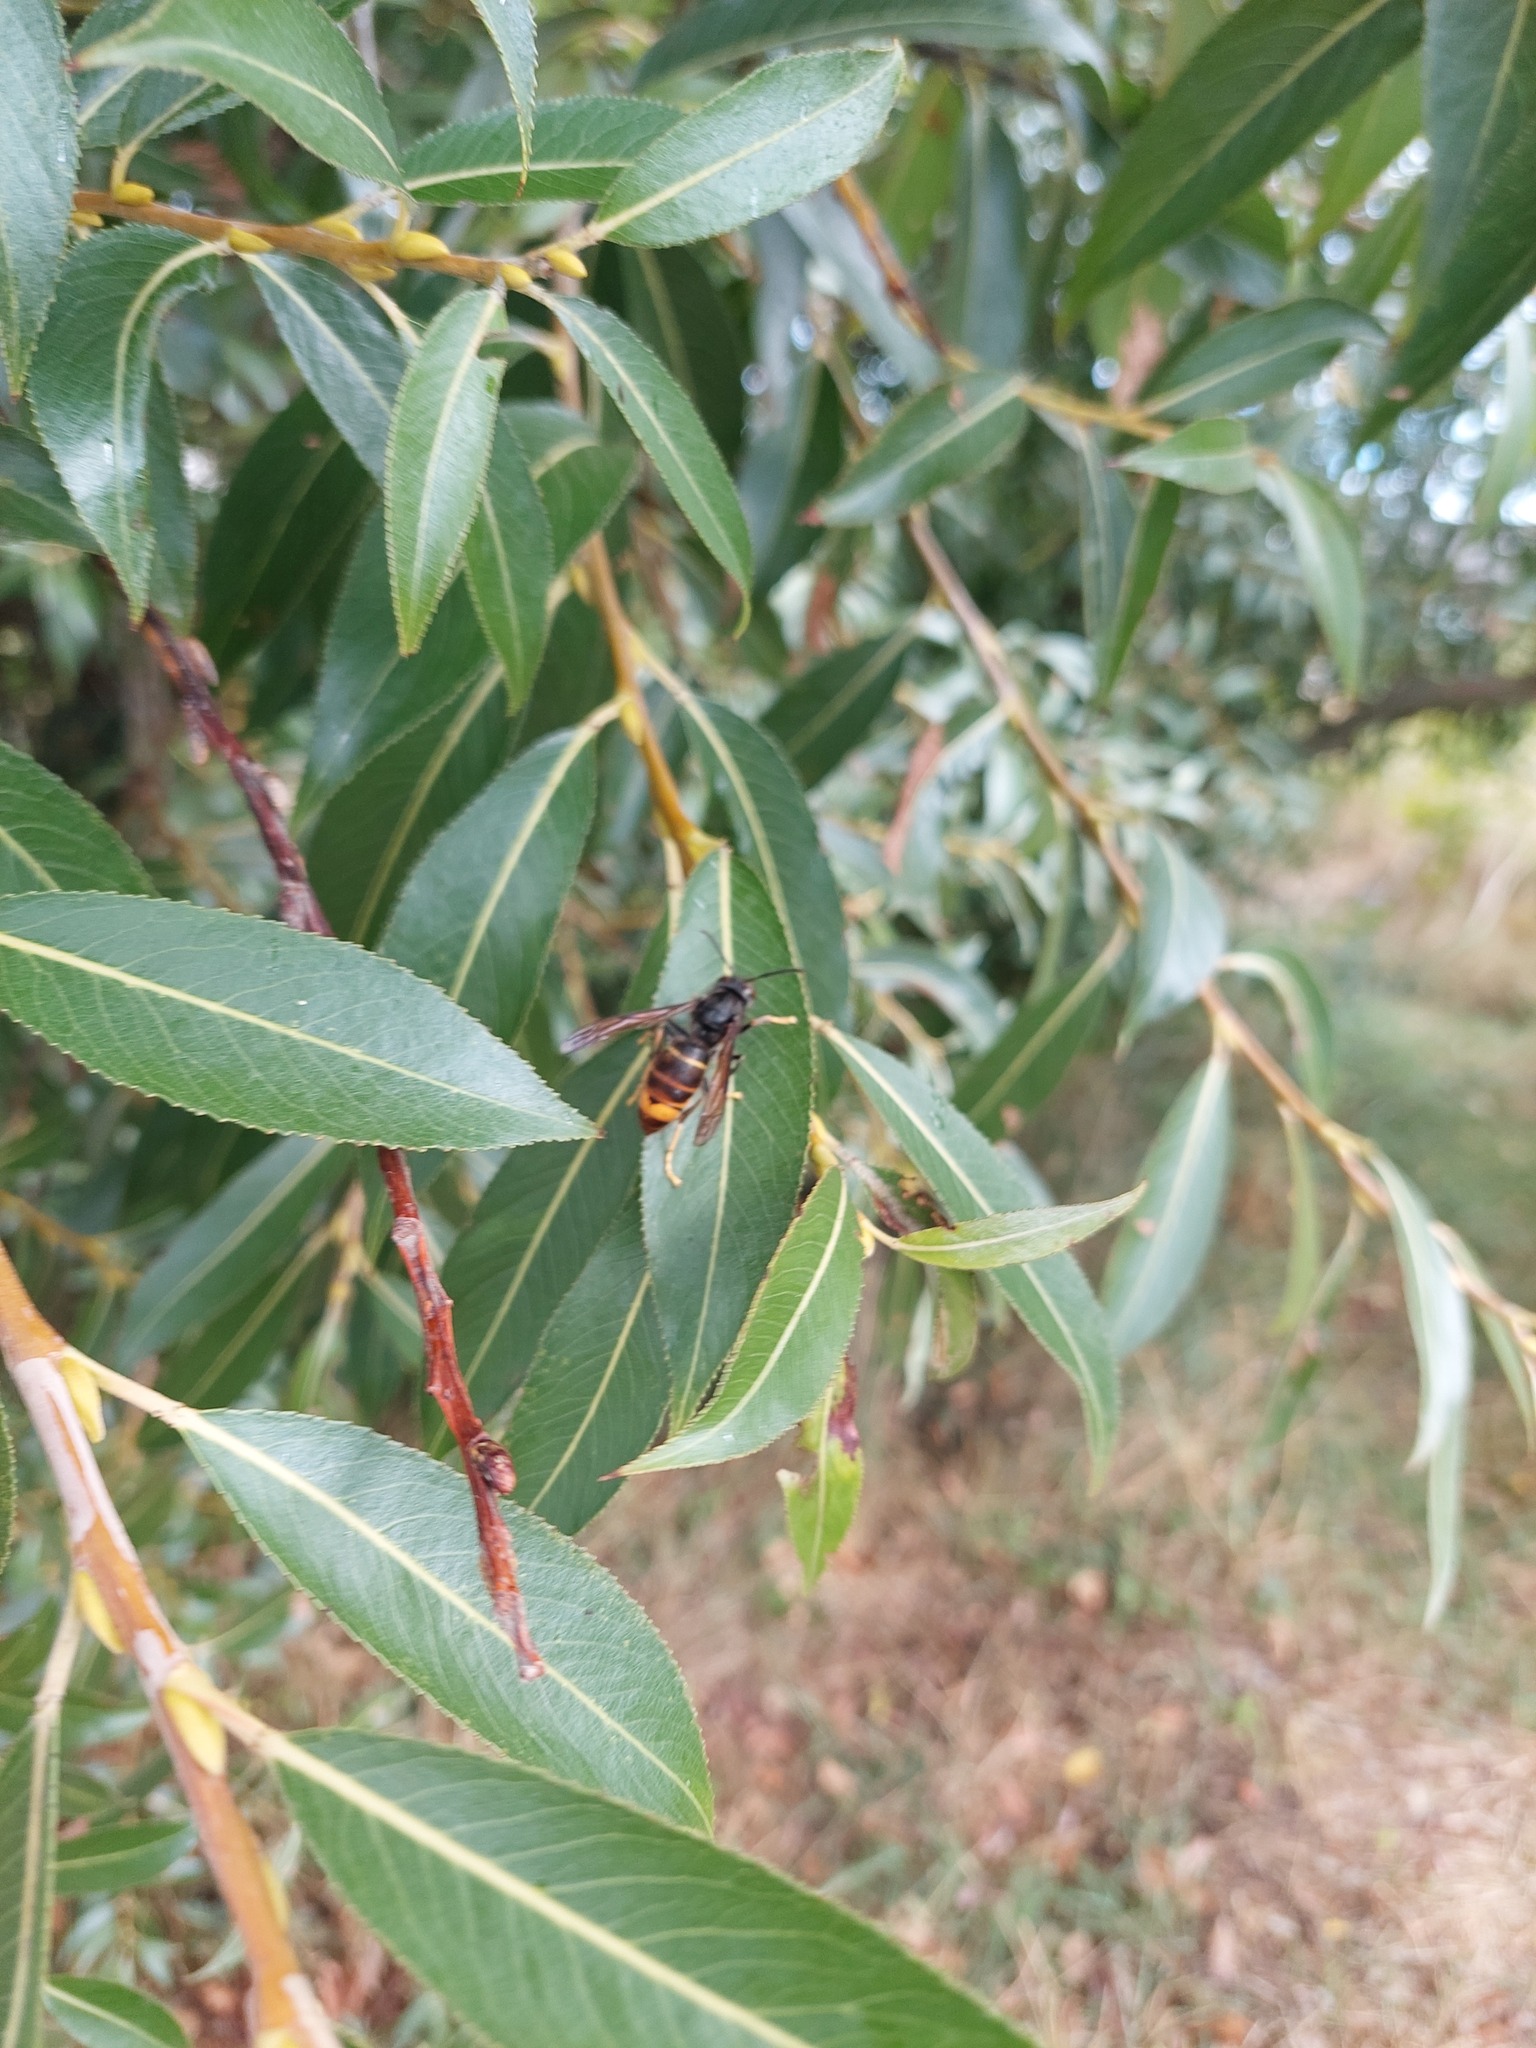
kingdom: Animalia
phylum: Arthropoda
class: Insecta
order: Hymenoptera
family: Vespidae
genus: Vespa
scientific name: Vespa velutina
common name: Asian hornet
